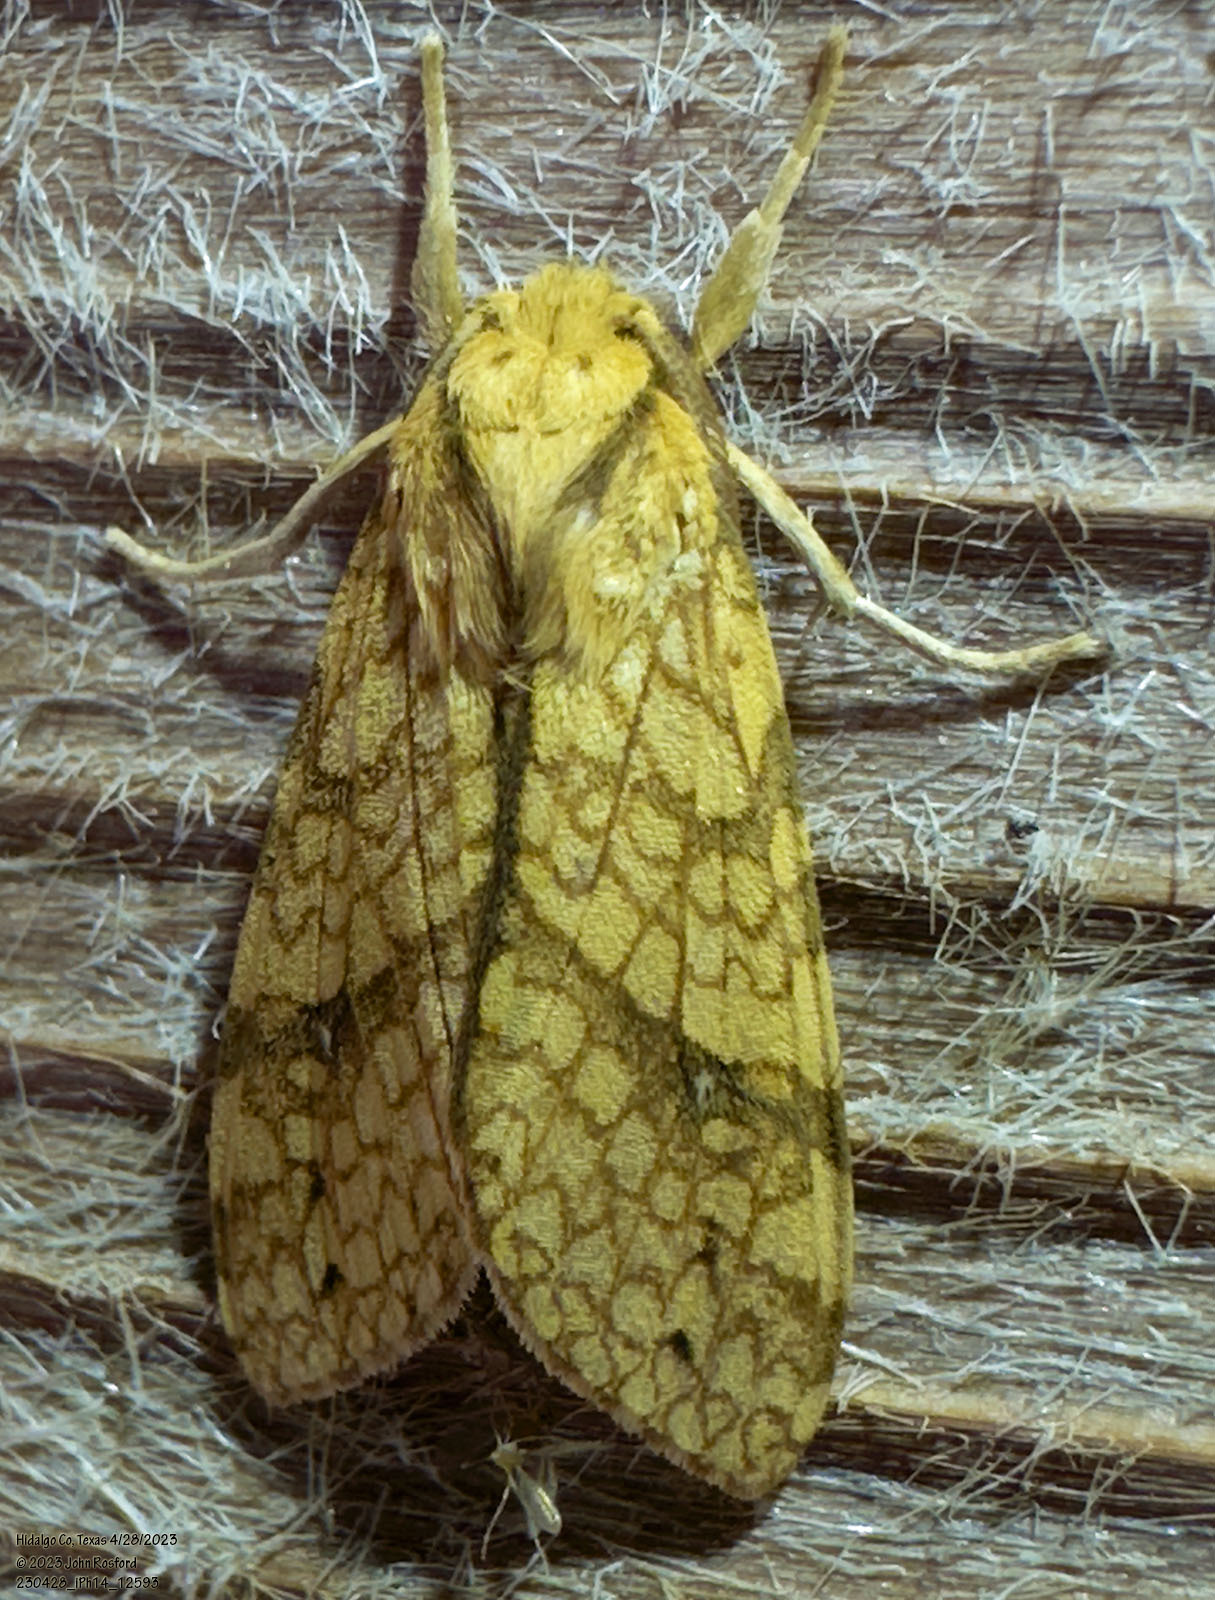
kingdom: Animalia
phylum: Arthropoda
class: Insecta
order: Lepidoptera
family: Erebidae
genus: Lophocampa
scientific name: Lophocampa annulosa
